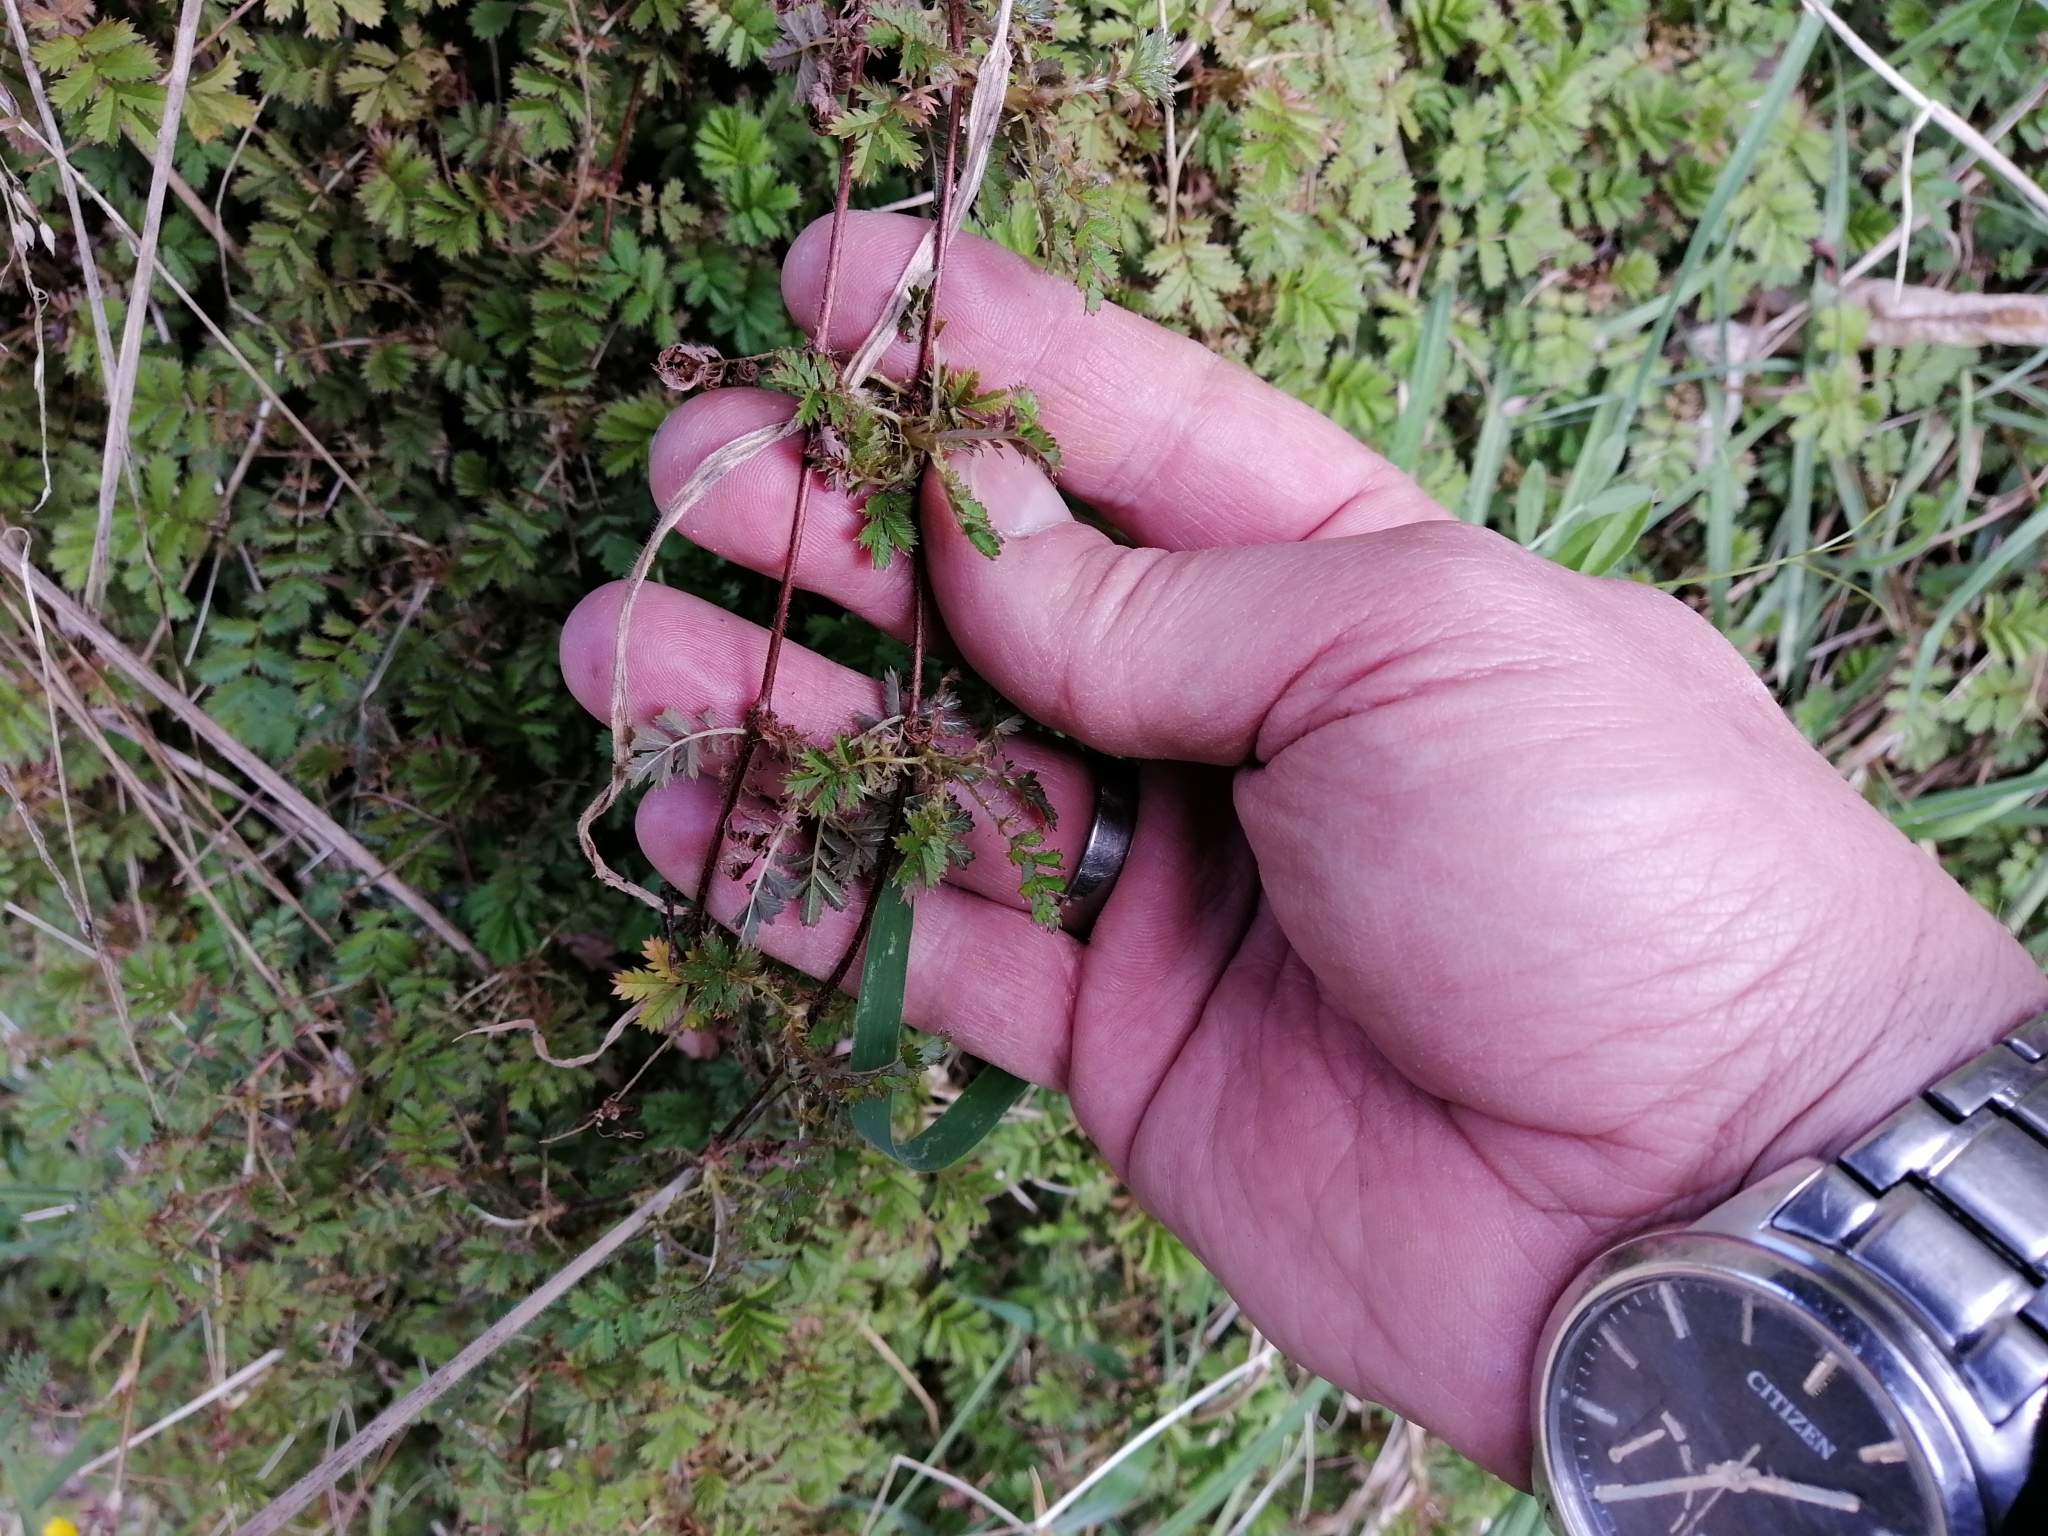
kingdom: Plantae
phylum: Tracheophyta
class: Magnoliopsida
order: Rosales
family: Rosaceae
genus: Acaena
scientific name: Acaena novae-zelandiae
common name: Pirri-pirri-bur
